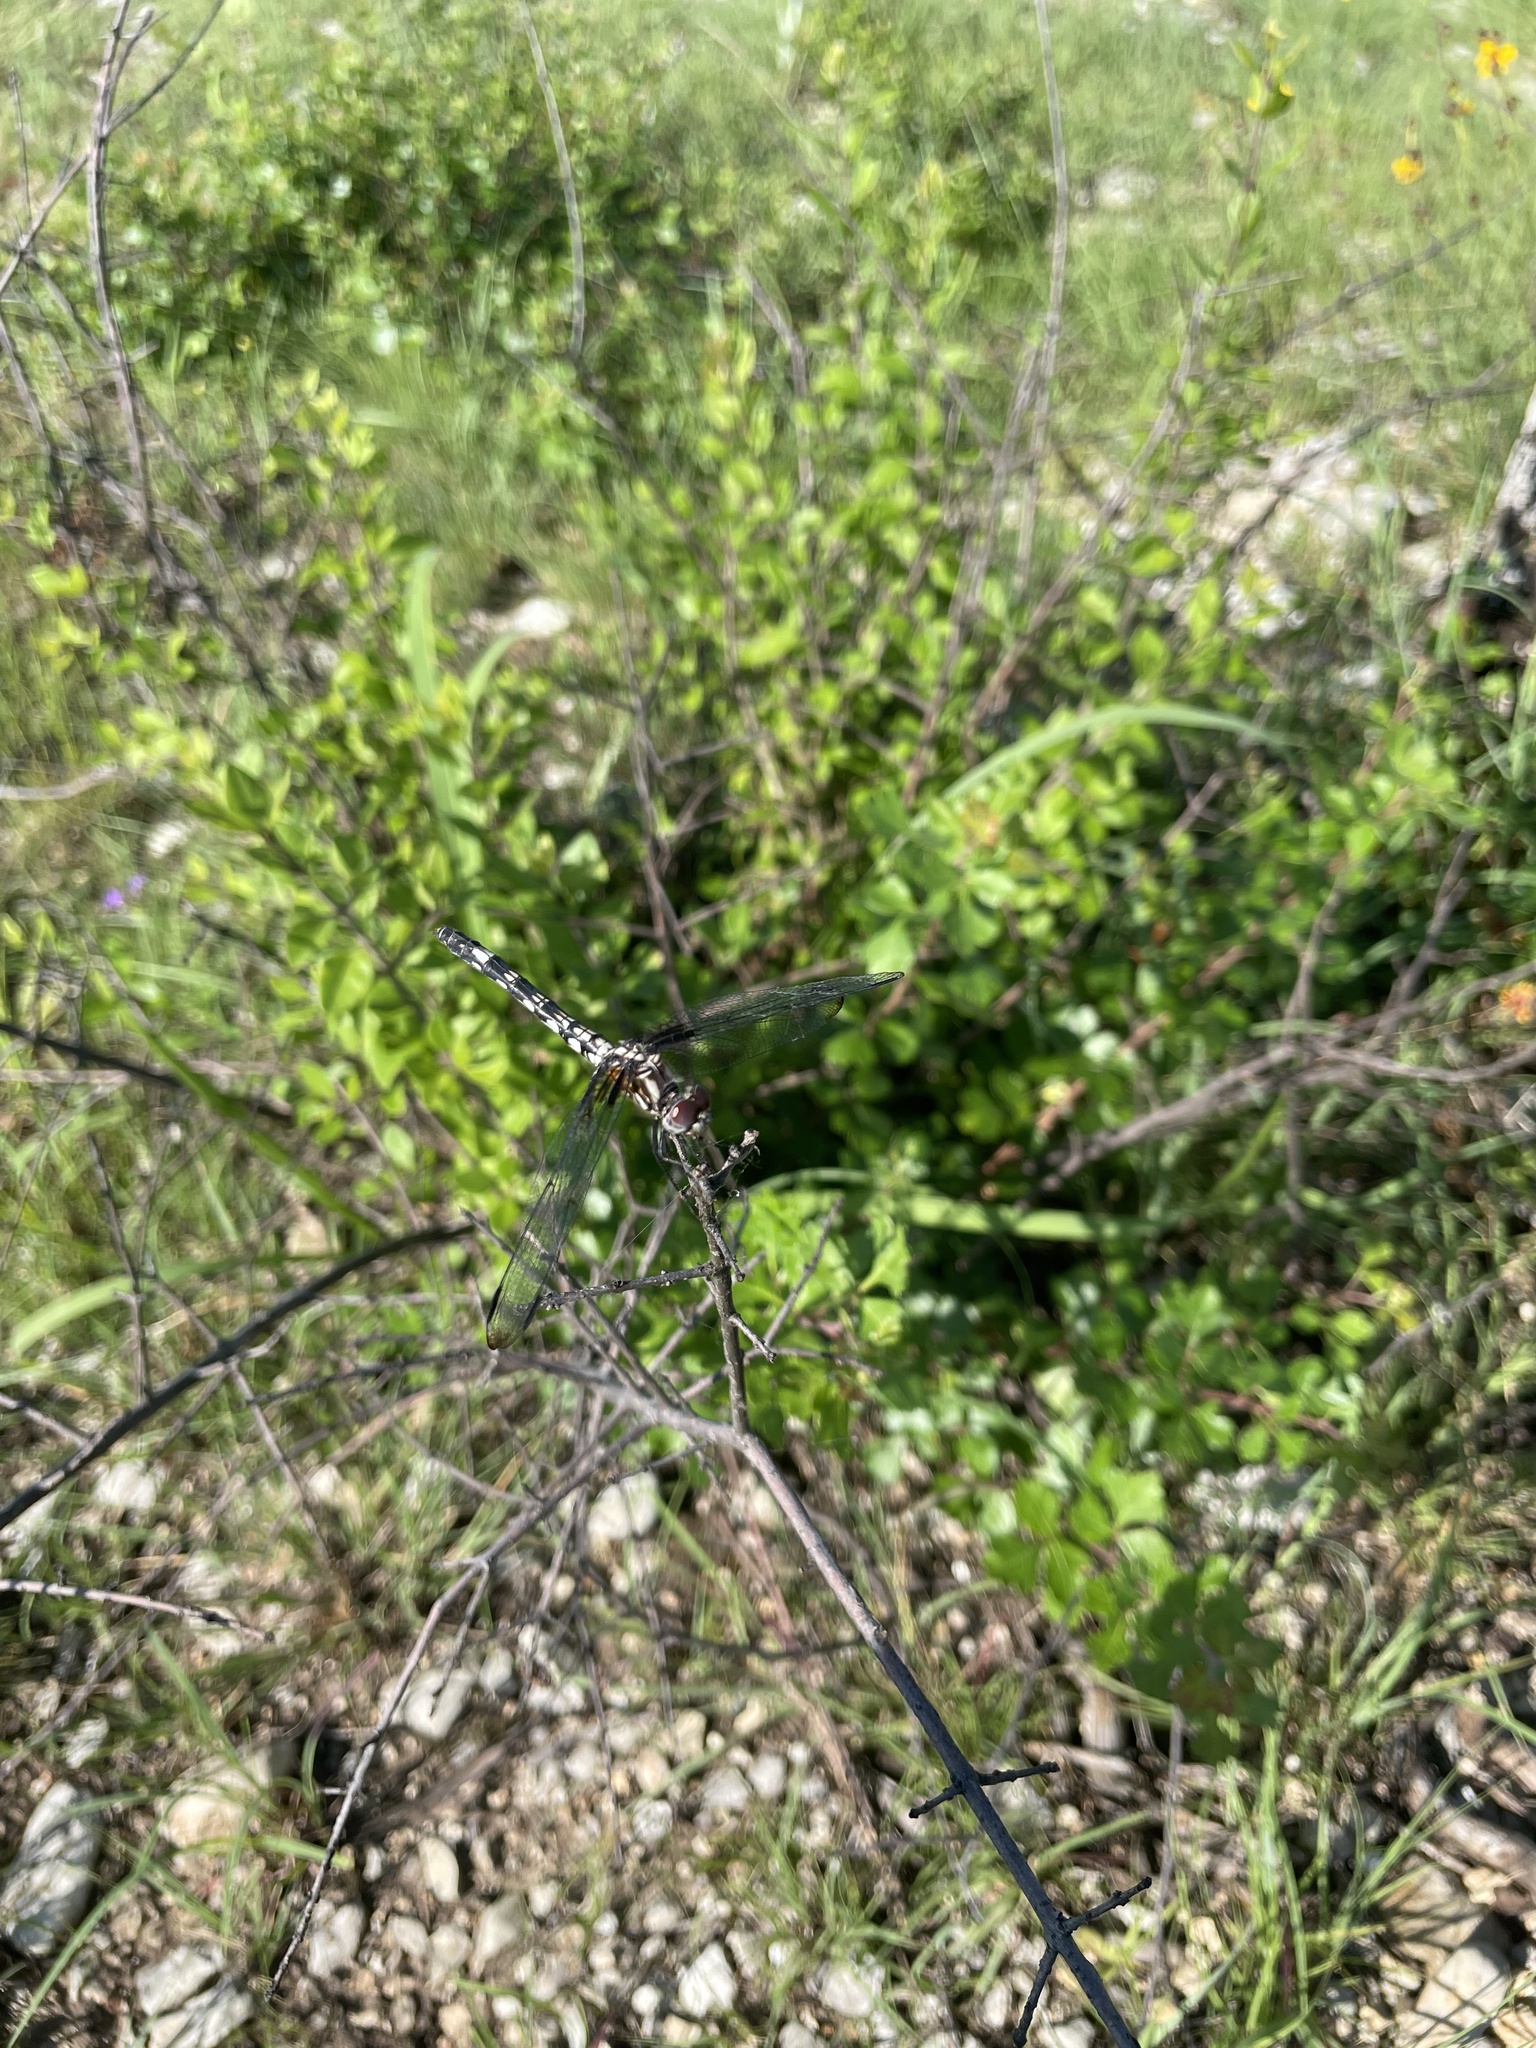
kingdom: Animalia
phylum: Arthropoda
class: Insecta
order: Odonata
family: Libellulidae
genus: Dythemis
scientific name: Dythemis fugax
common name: Checkered setwing
